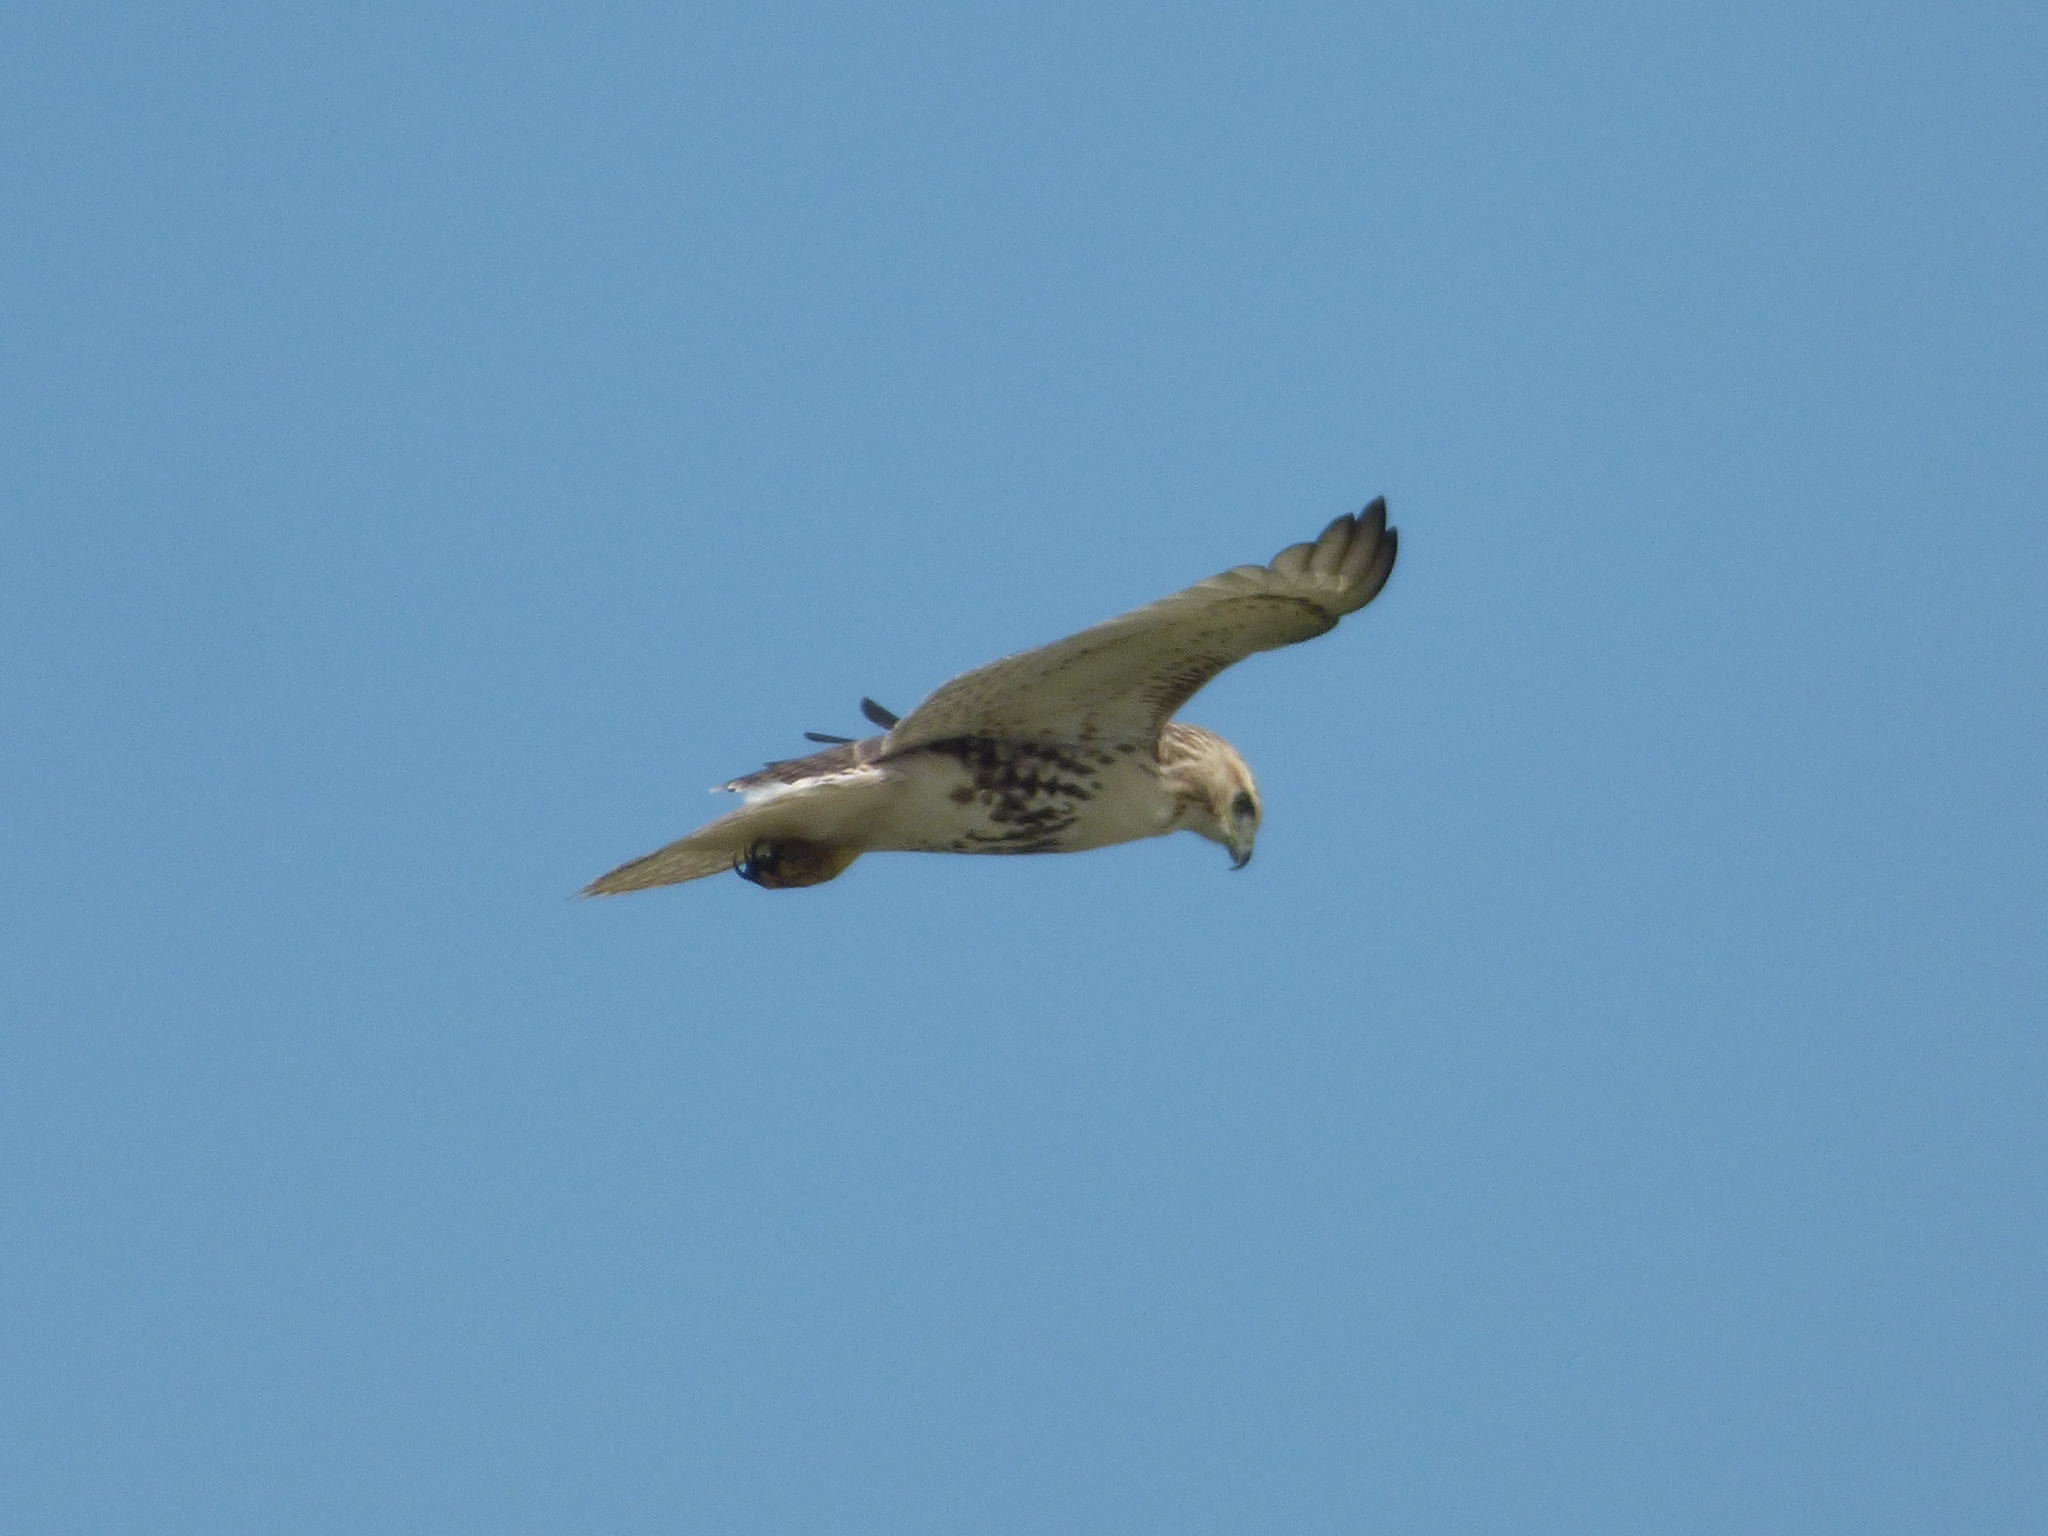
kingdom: Animalia
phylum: Chordata
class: Aves
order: Accipitriformes
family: Accipitridae
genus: Buteo
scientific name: Buteo jamaicensis
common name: Red-tailed hawk
